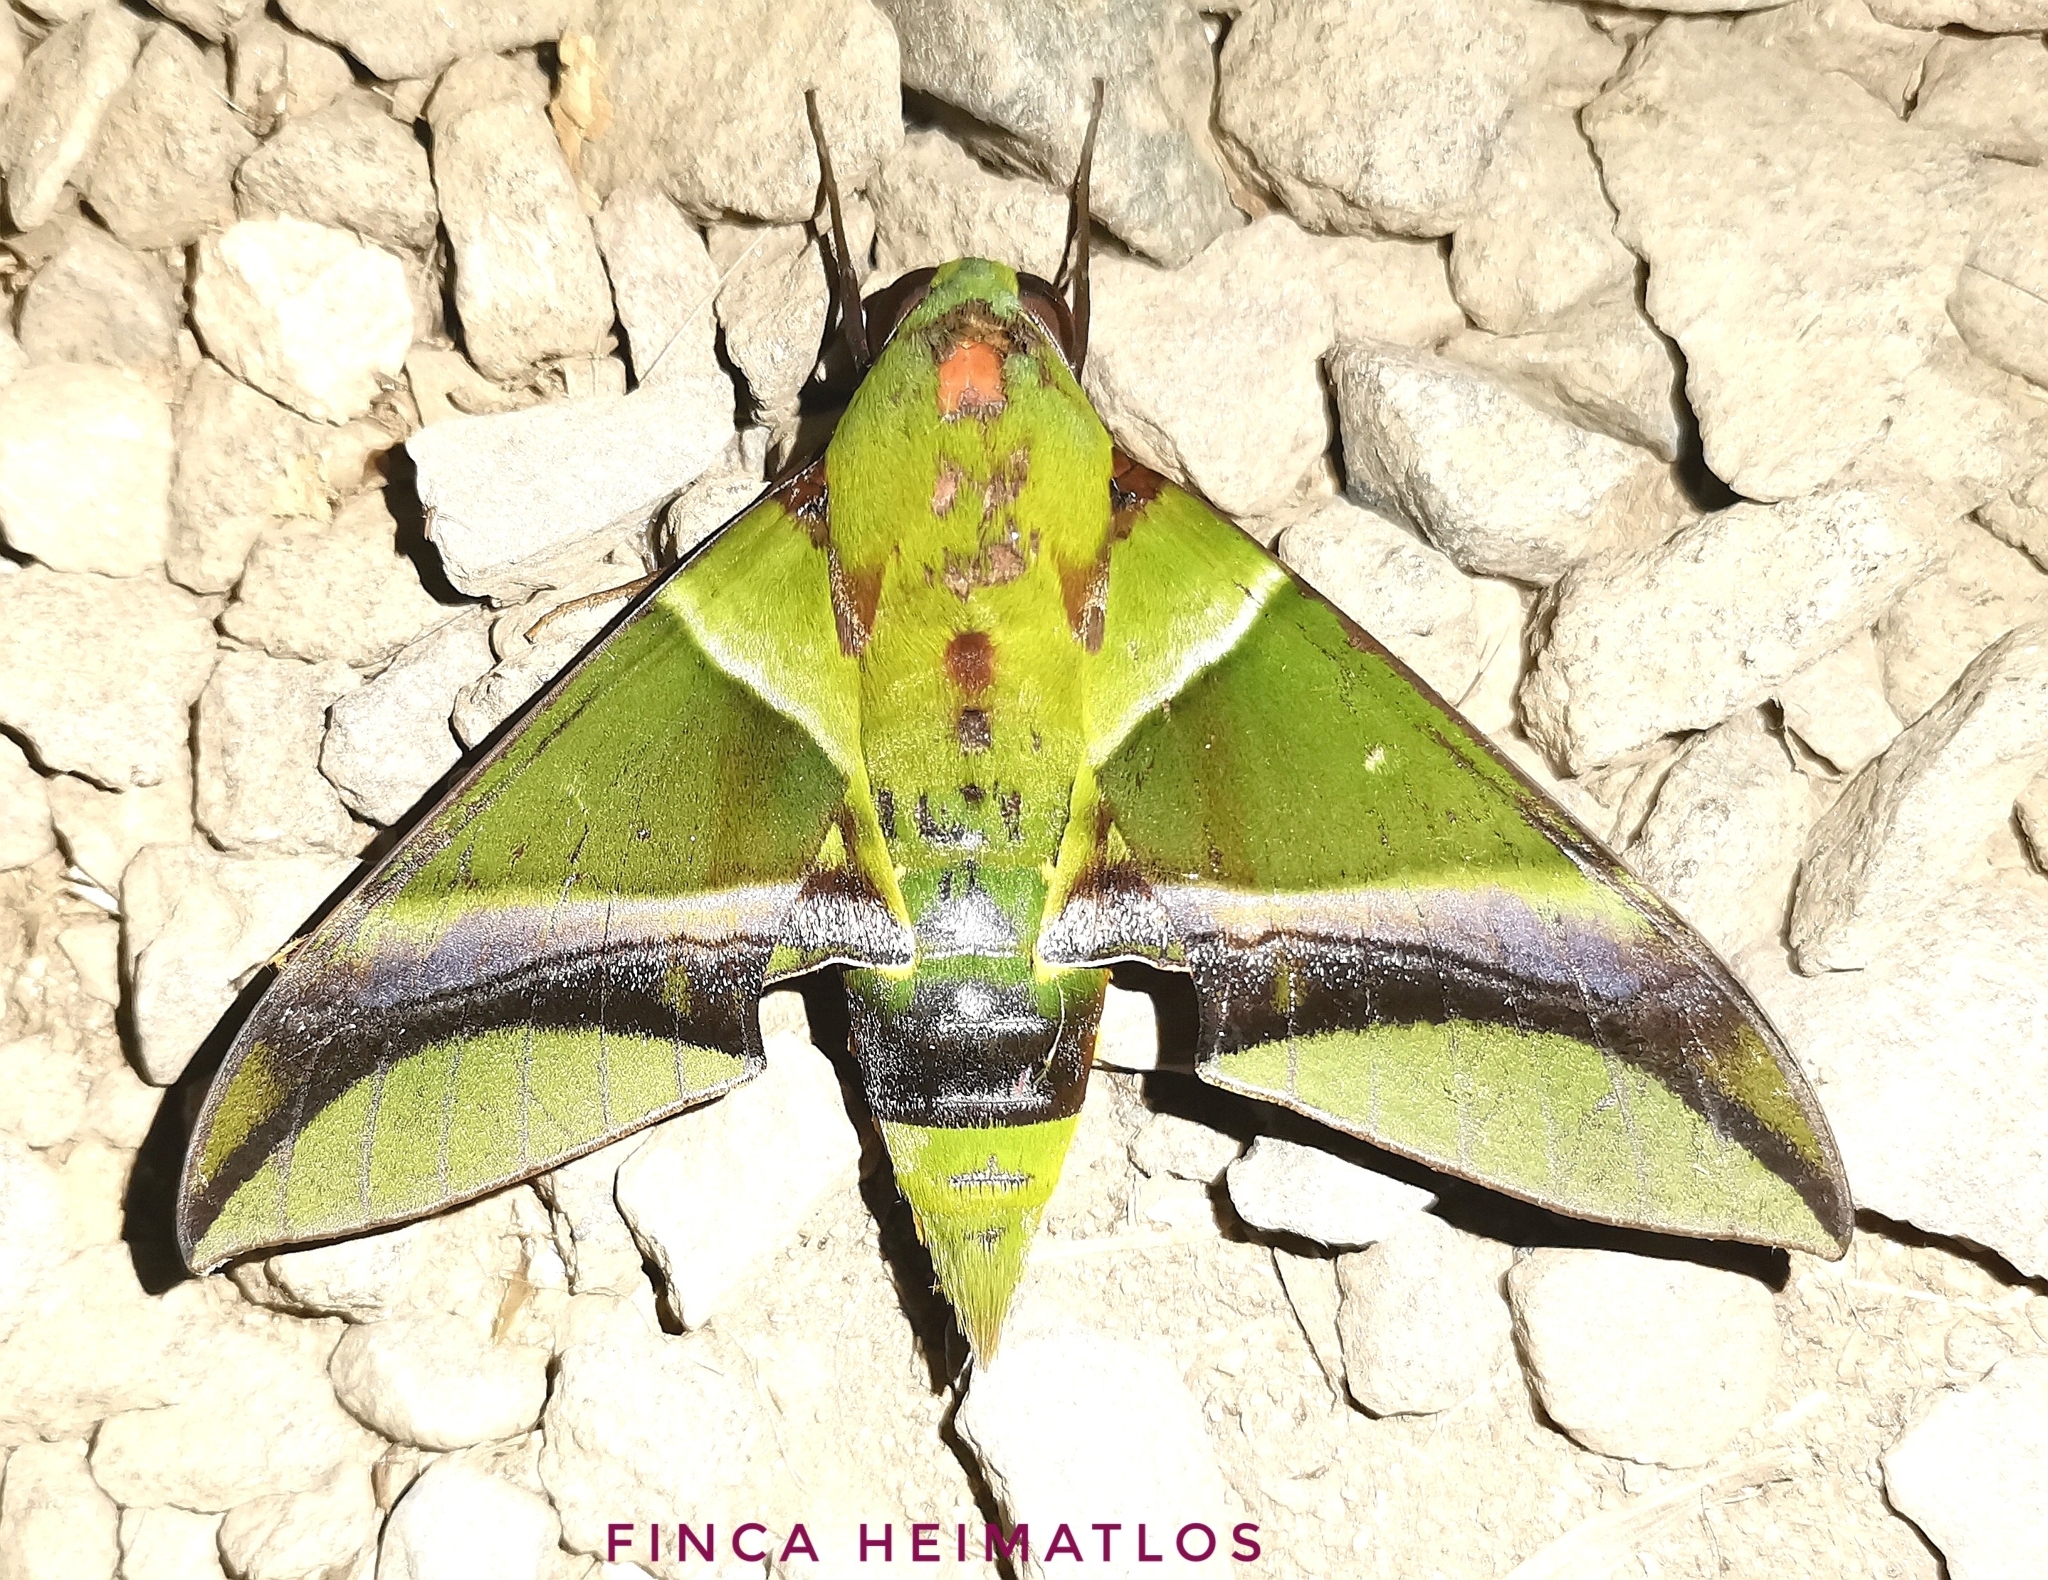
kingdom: Animalia
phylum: Arthropoda
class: Insecta
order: Lepidoptera
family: Sphingidae
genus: Oryba
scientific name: Oryba kadeni
